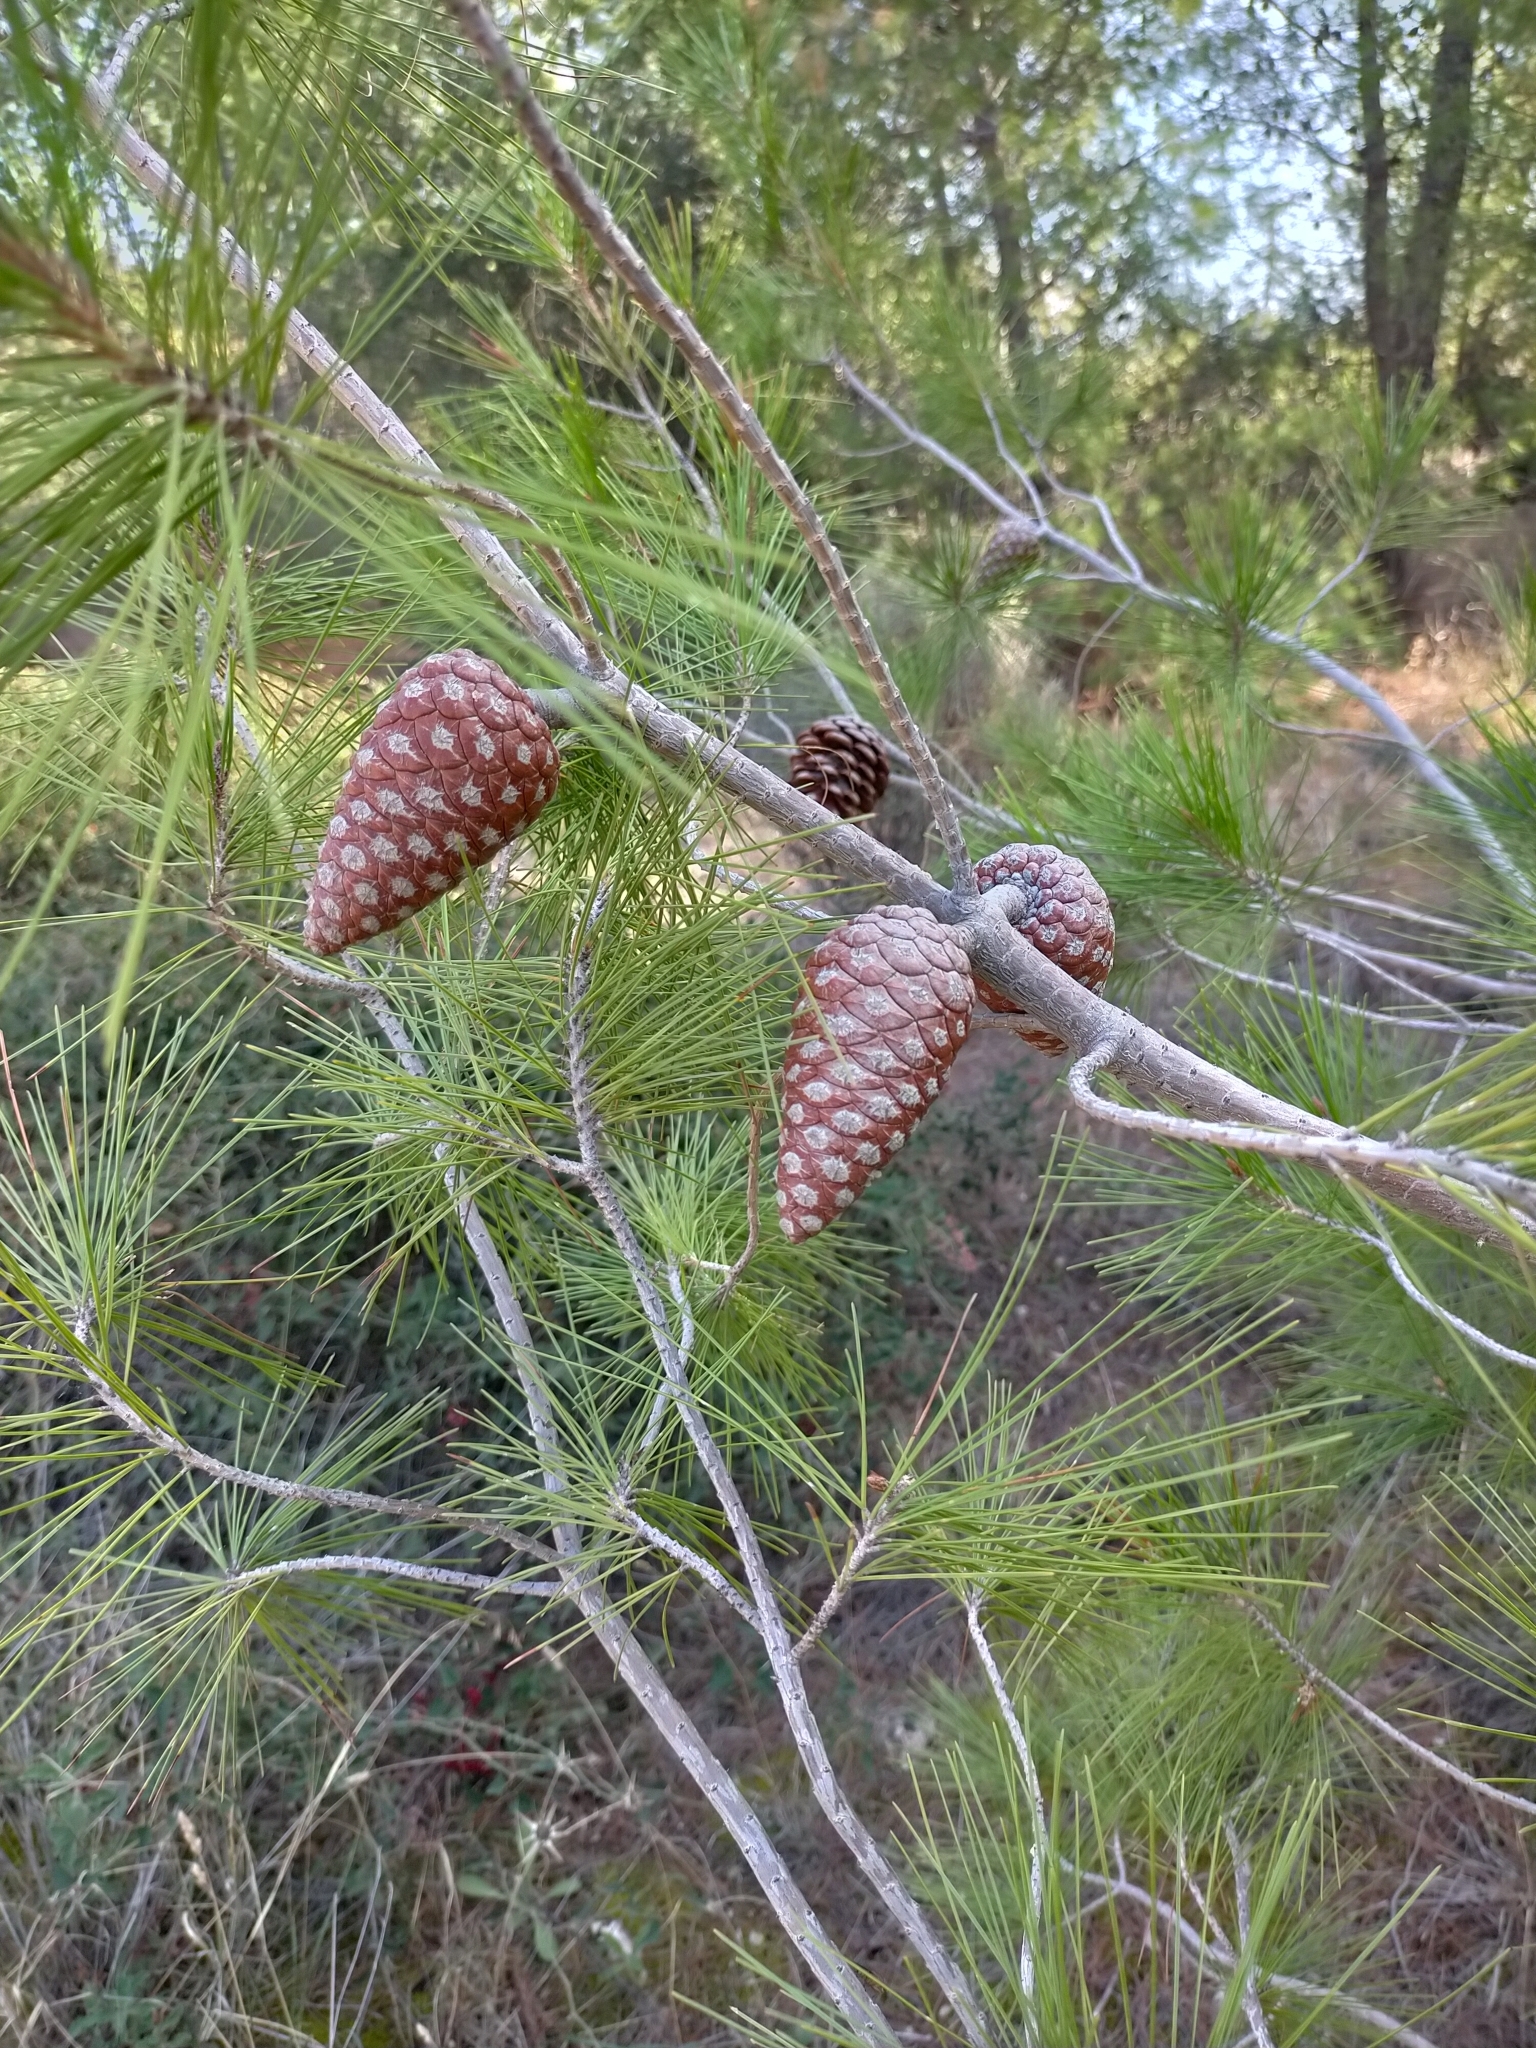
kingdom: Plantae
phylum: Tracheophyta
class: Pinopsida
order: Pinales
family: Pinaceae
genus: Pinus
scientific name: Pinus halepensis
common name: Aleppo pine
